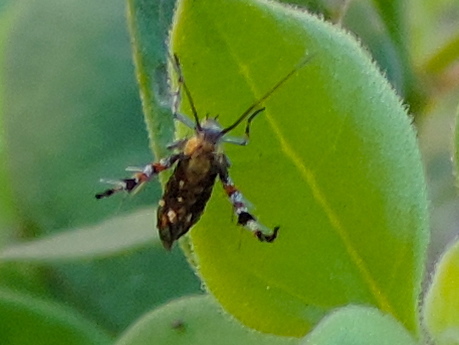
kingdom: Animalia
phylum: Arthropoda
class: Insecta
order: Lepidoptera
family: Heliodinidae
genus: Heliodines
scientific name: Heliodines
